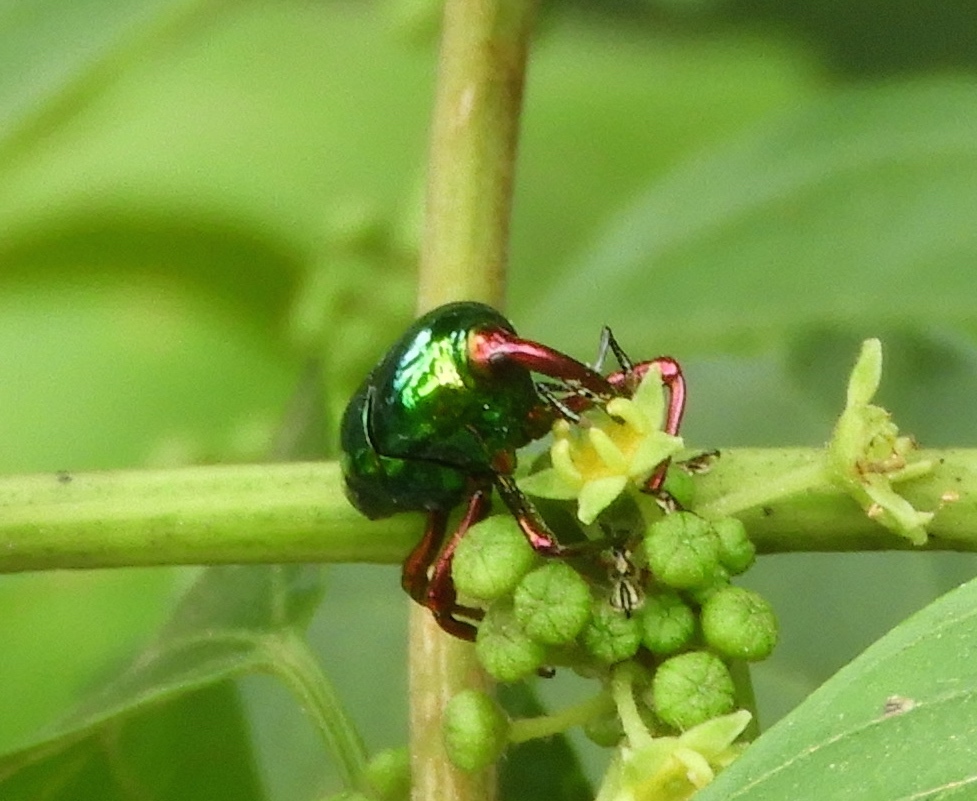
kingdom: Animalia
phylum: Arthropoda
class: Insecta
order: Coleoptera
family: Curculionidae
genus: Eurhinus
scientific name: Eurhinus
